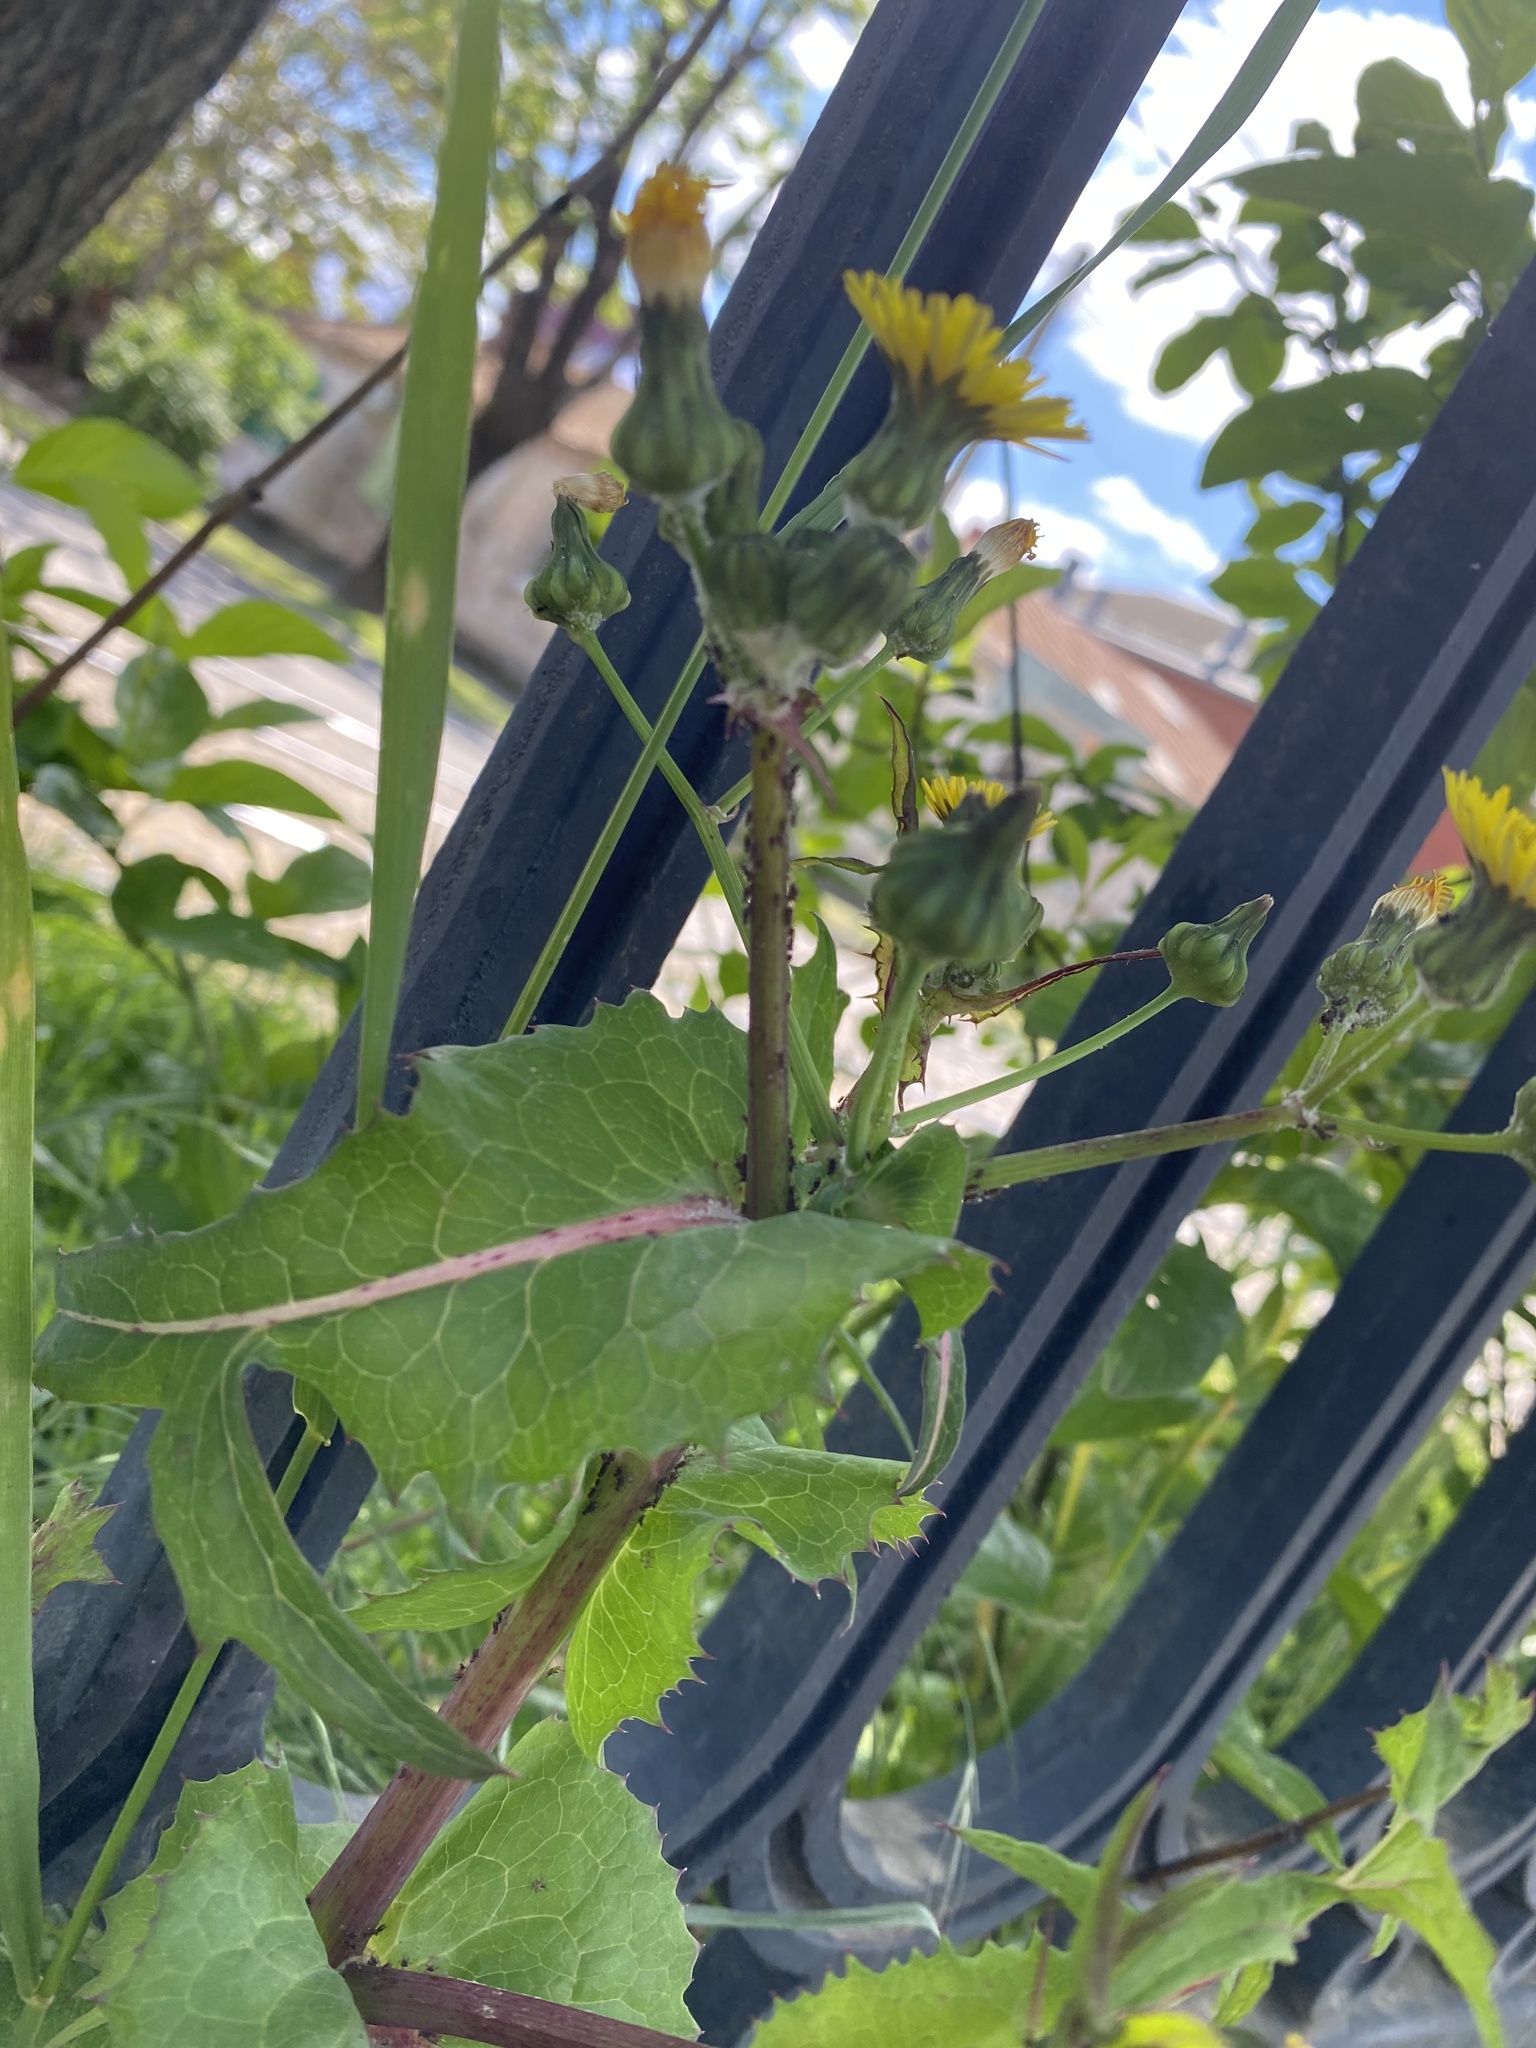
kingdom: Plantae
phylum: Tracheophyta
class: Magnoliopsida
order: Asterales
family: Asteraceae
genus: Sonchus
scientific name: Sonchus oleraceus
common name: Common sowthistle
